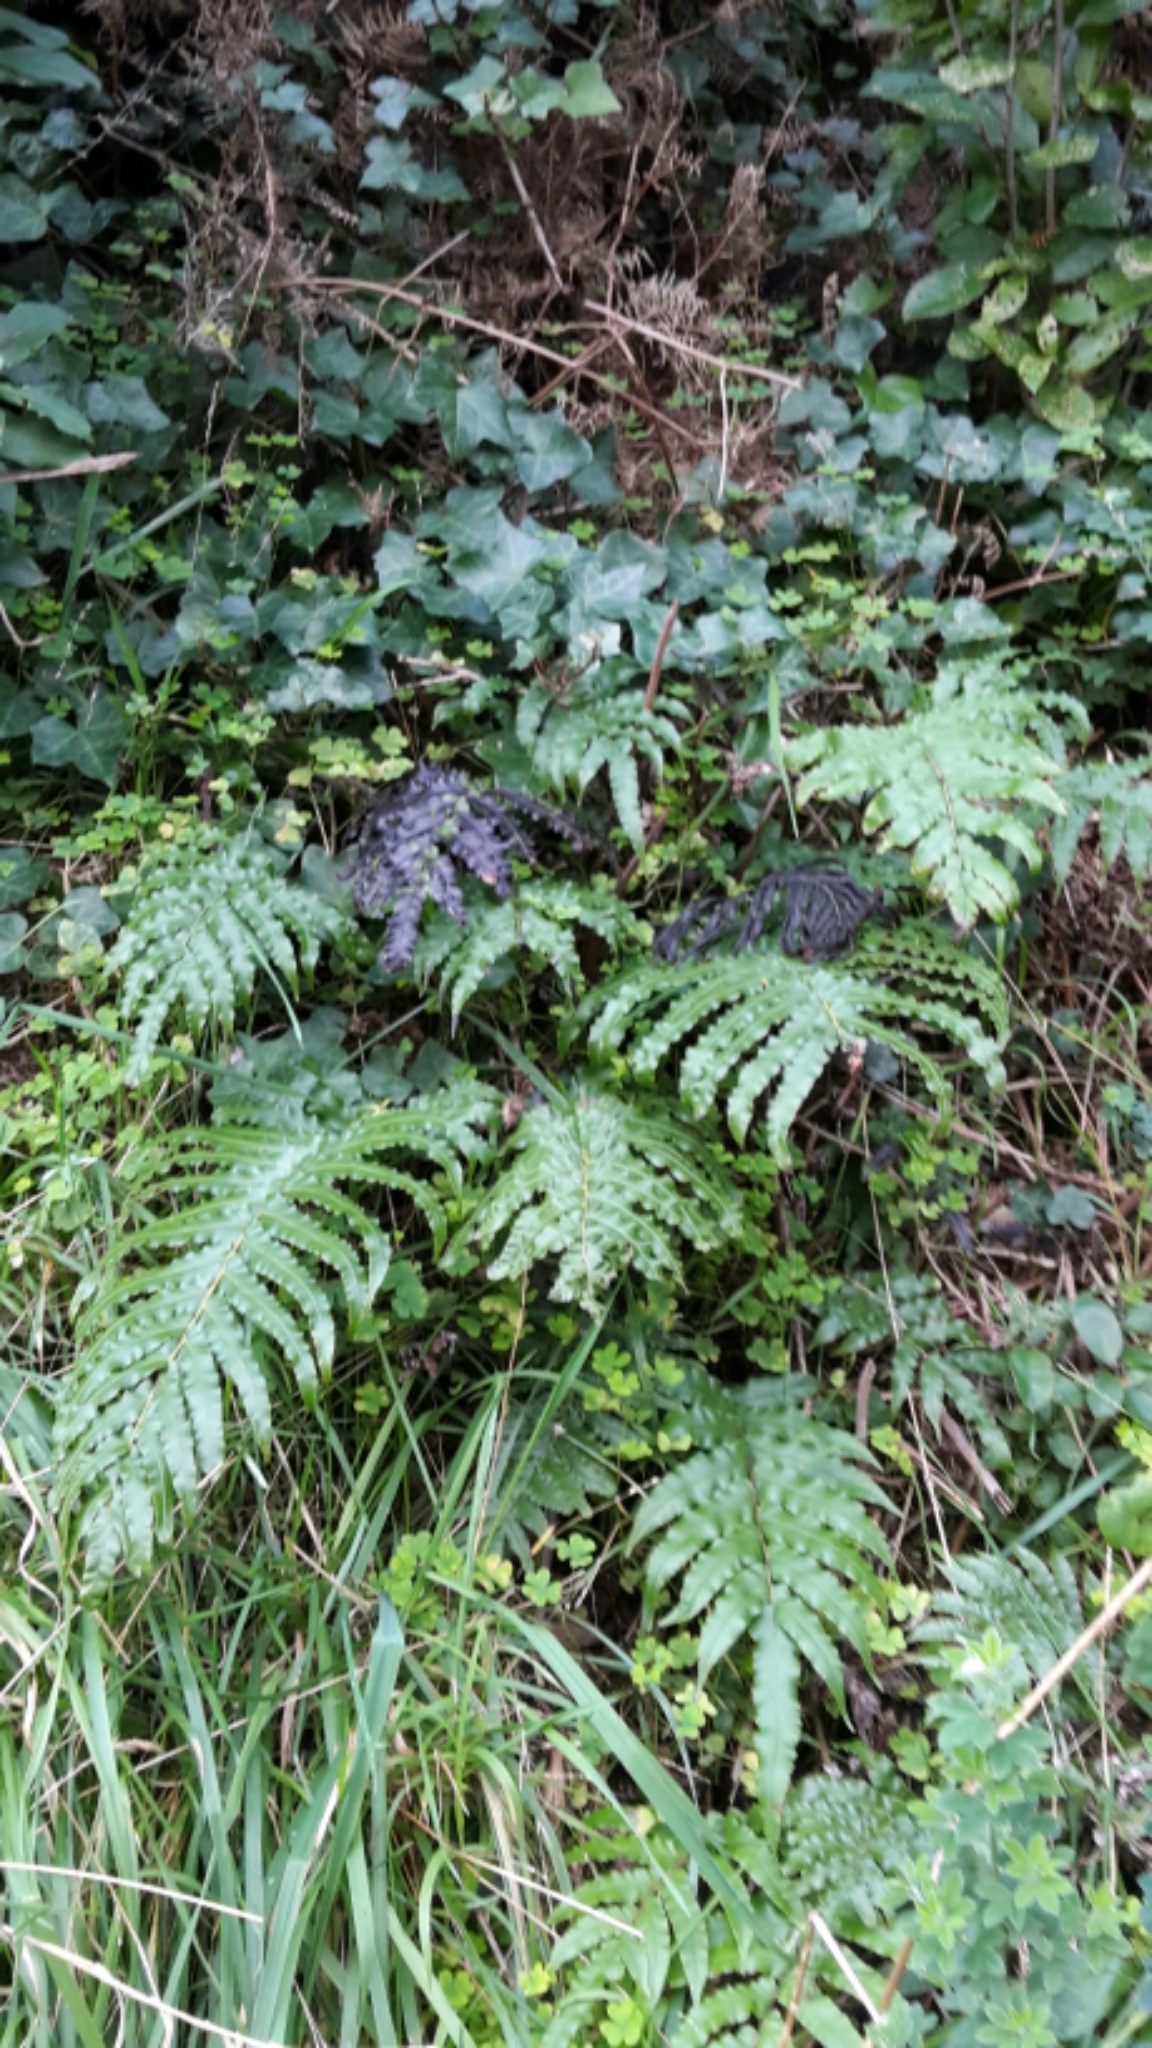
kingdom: Plantae
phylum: Tracheophyta
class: Polypodiopsida
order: Polypodiales
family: Blechnaceae
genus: Parablechnum
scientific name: Parablechnum novae-zelandiae
